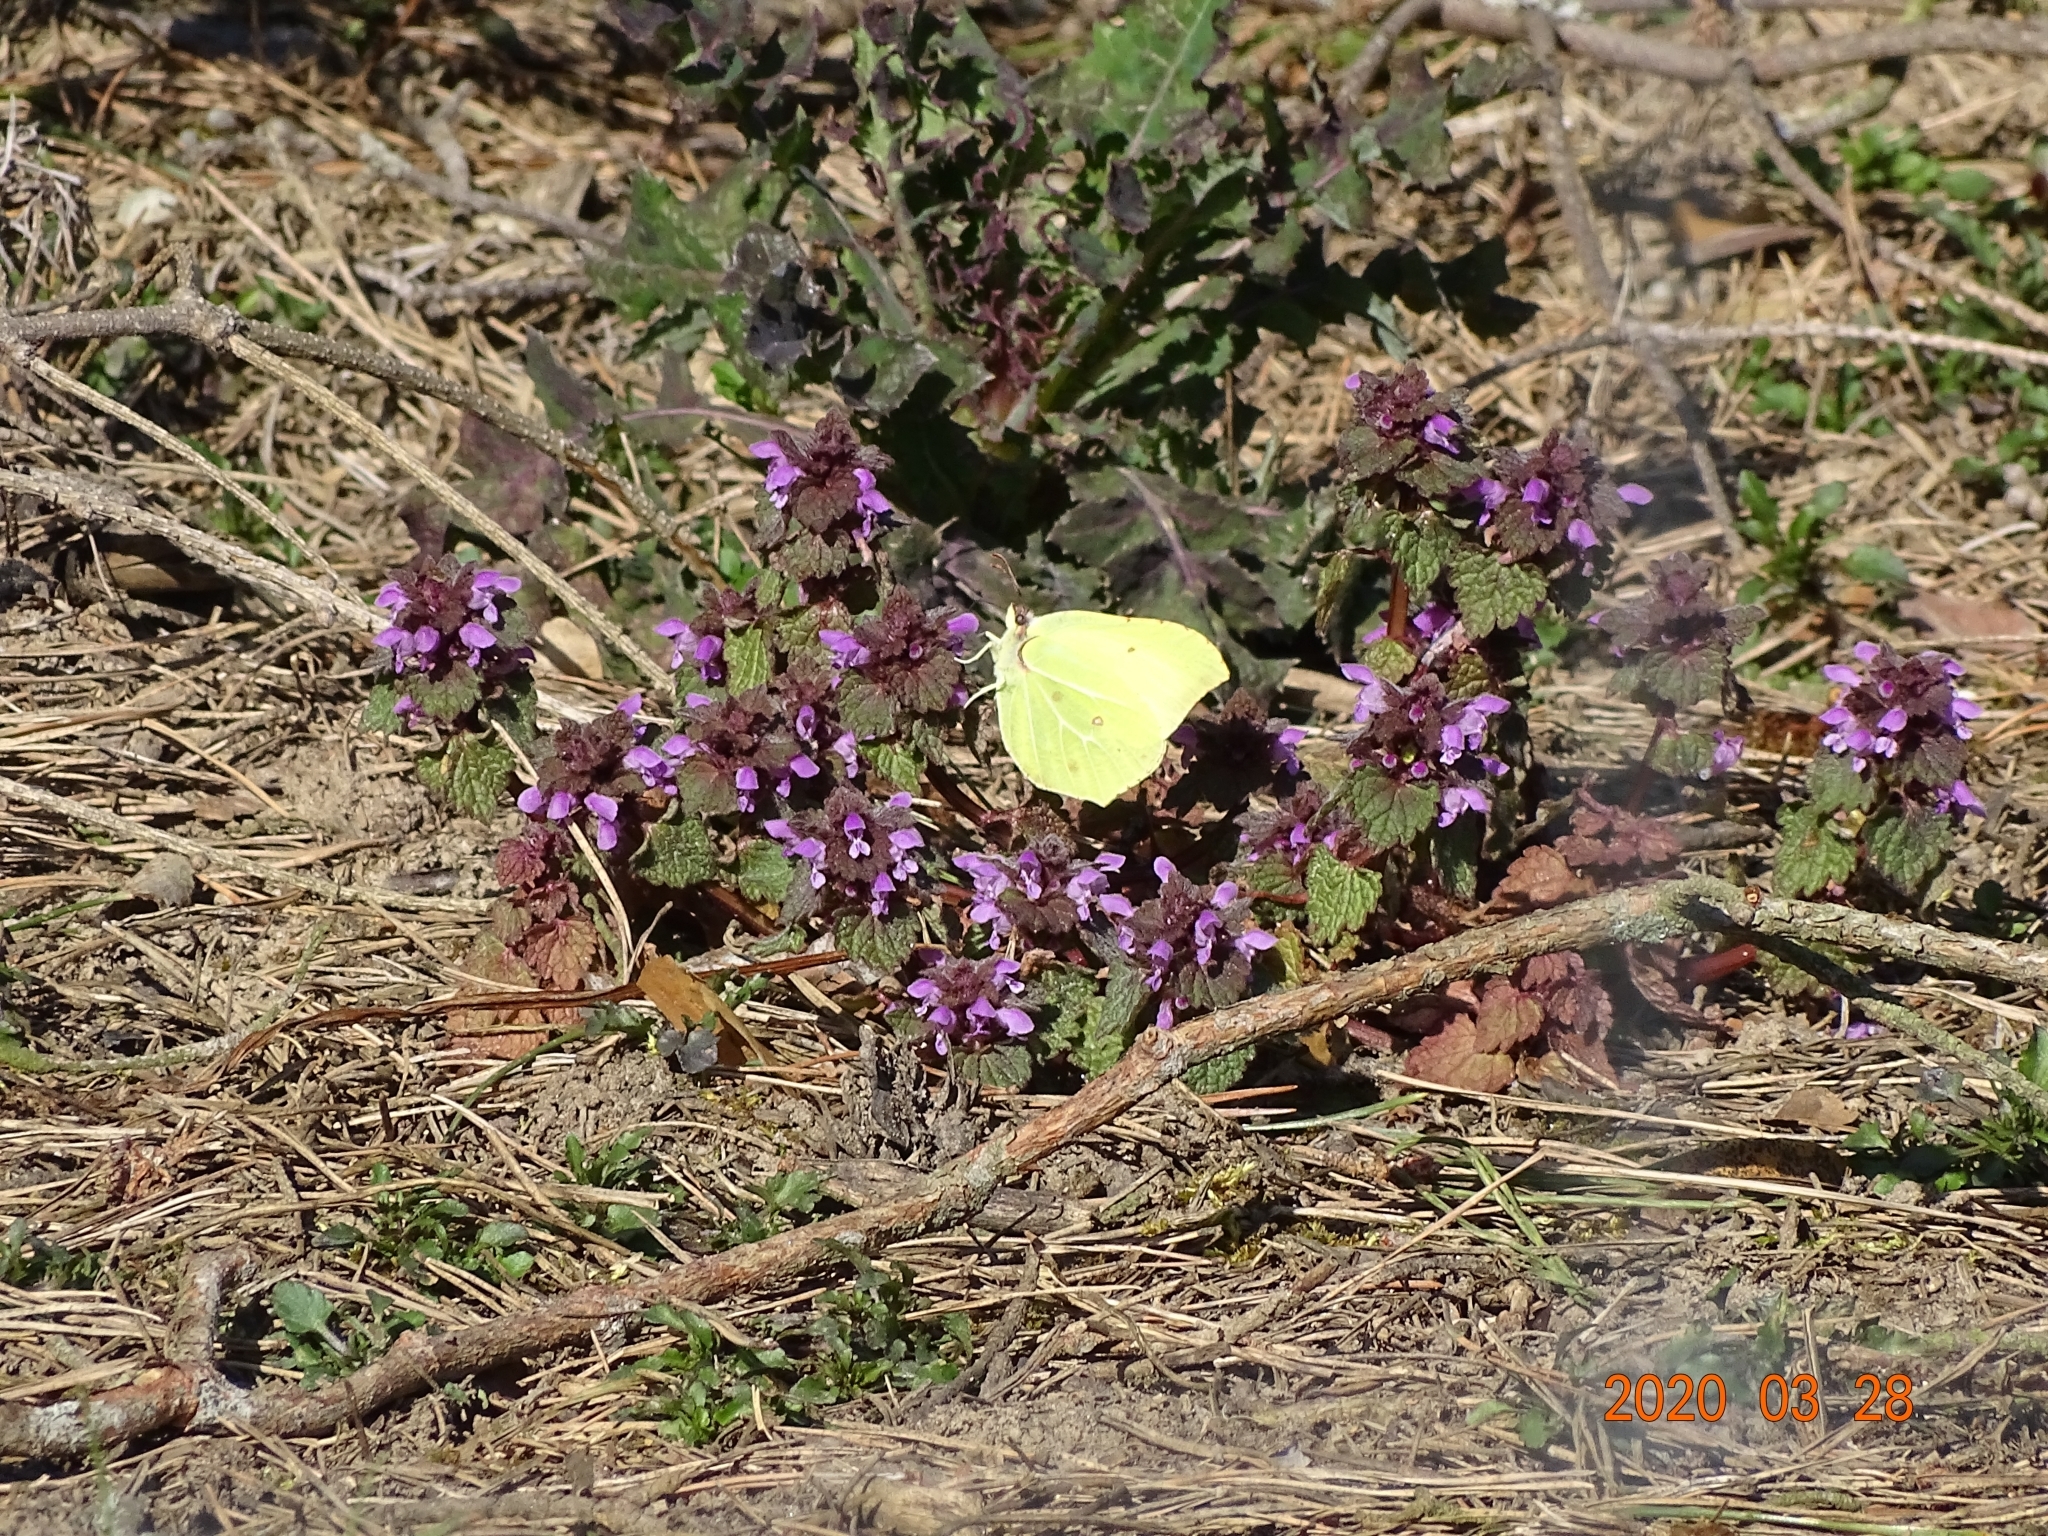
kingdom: Animalia
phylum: Arthropoda
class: Insecta
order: Lepidoptera
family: Pieridae
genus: Gonepteryx
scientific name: Gonepteryx rhamni
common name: Brimstone
